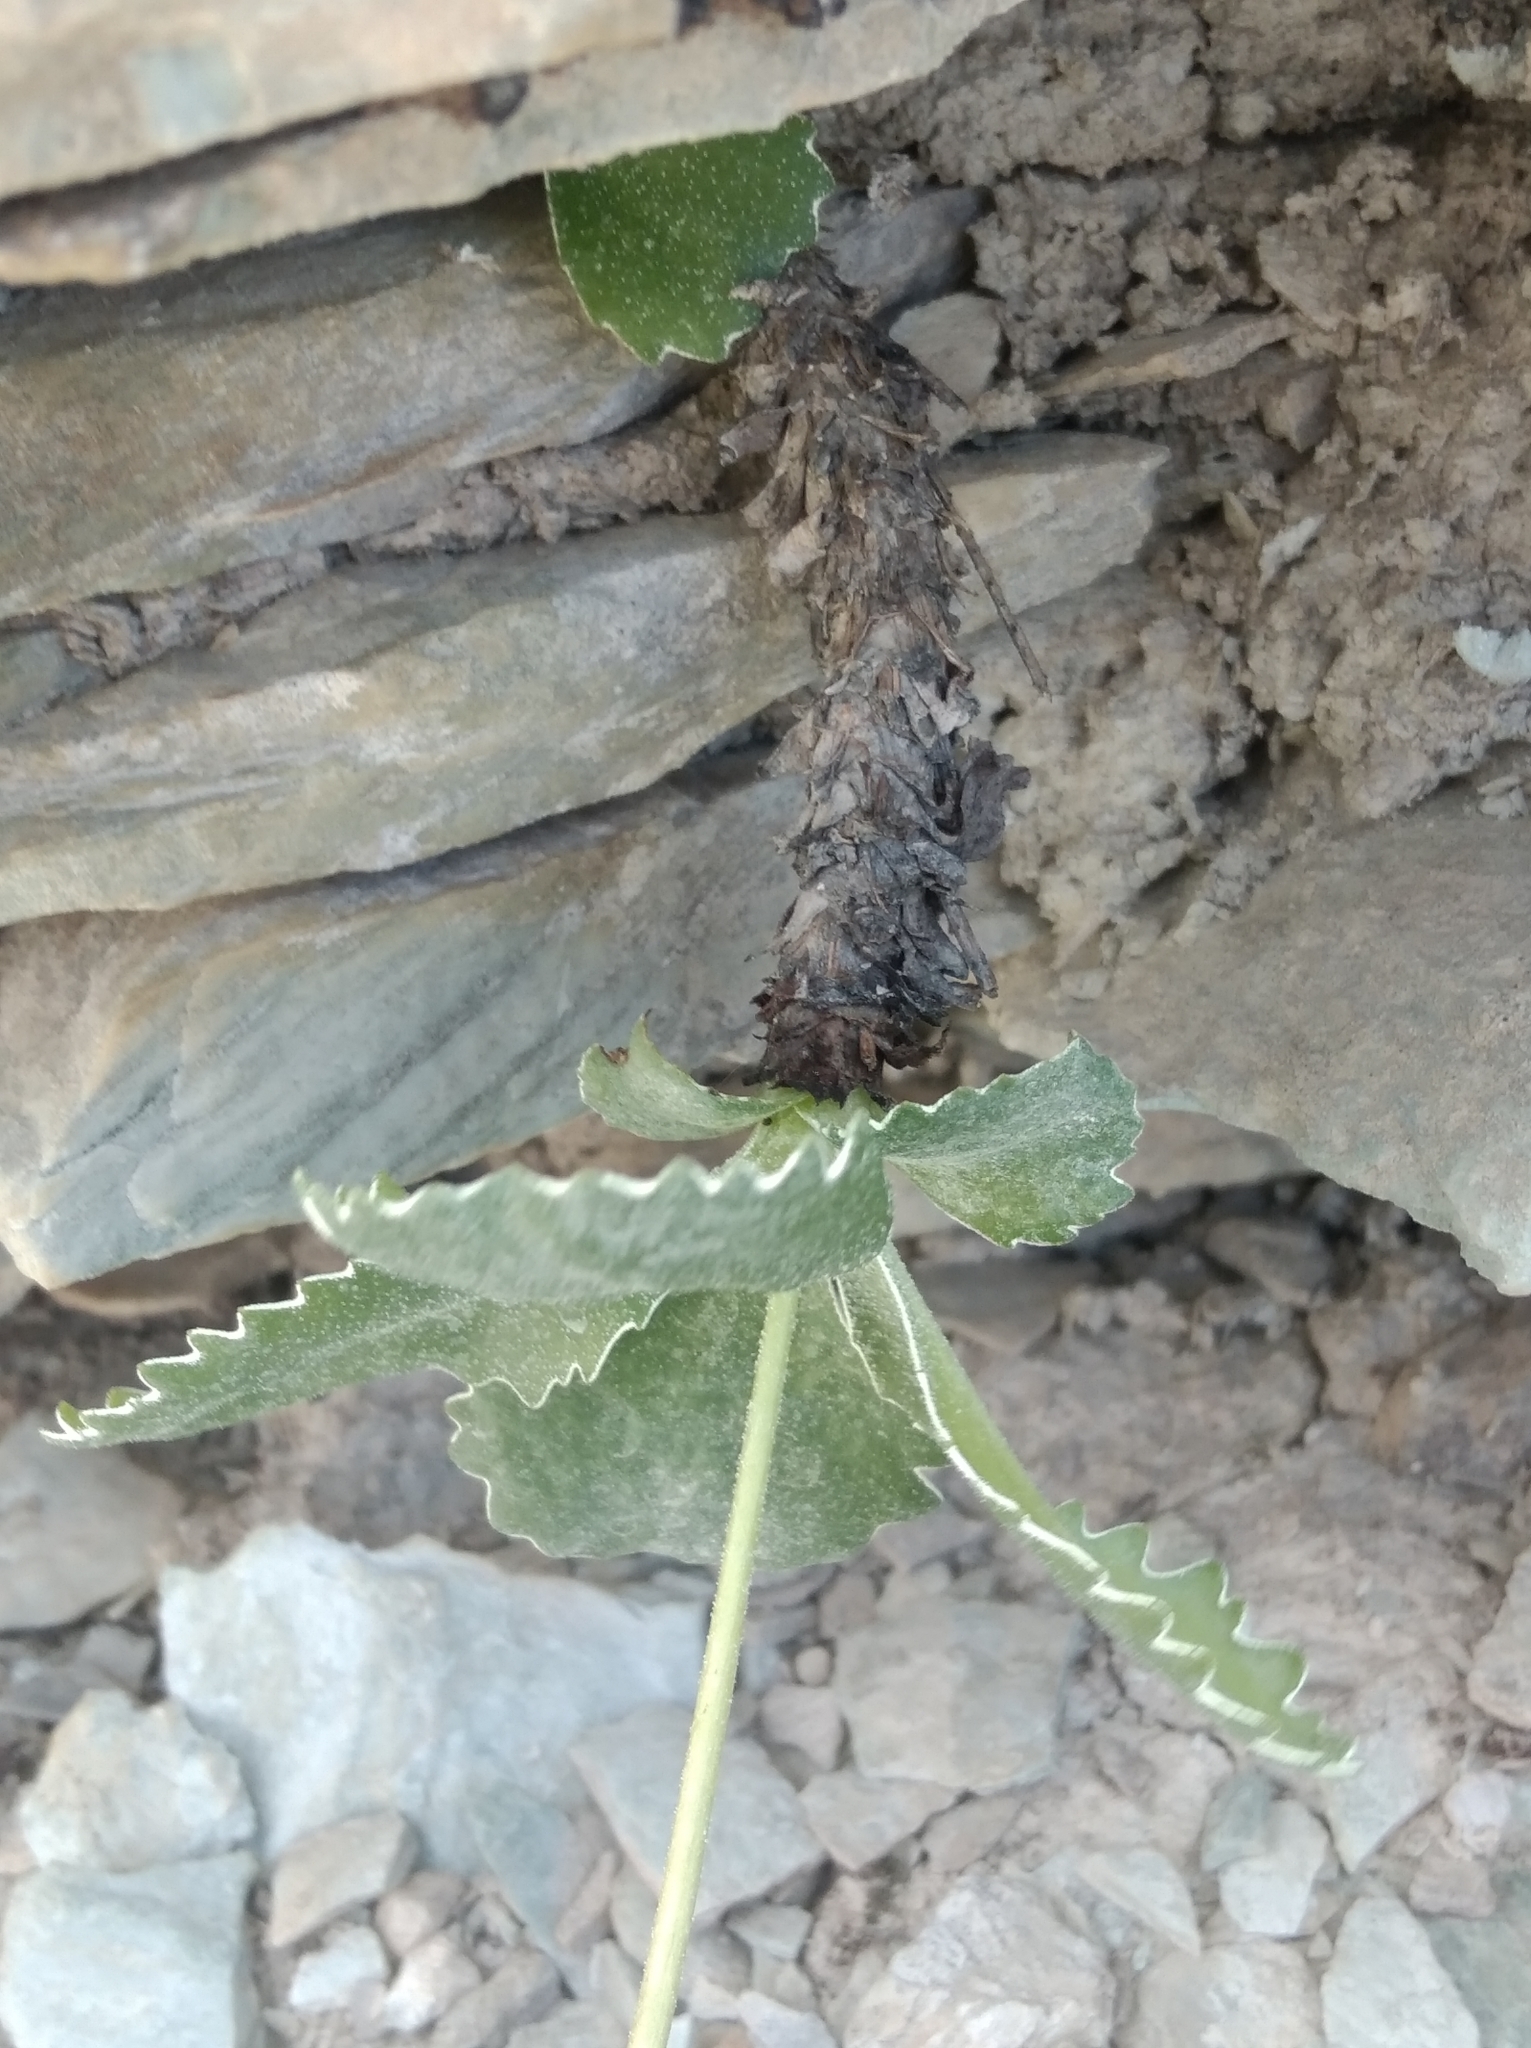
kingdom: Plantae
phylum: Tracheophyta
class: Magnoliopsida
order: Ericales
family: Primulaceae
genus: Primula
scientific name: Primula marginata
